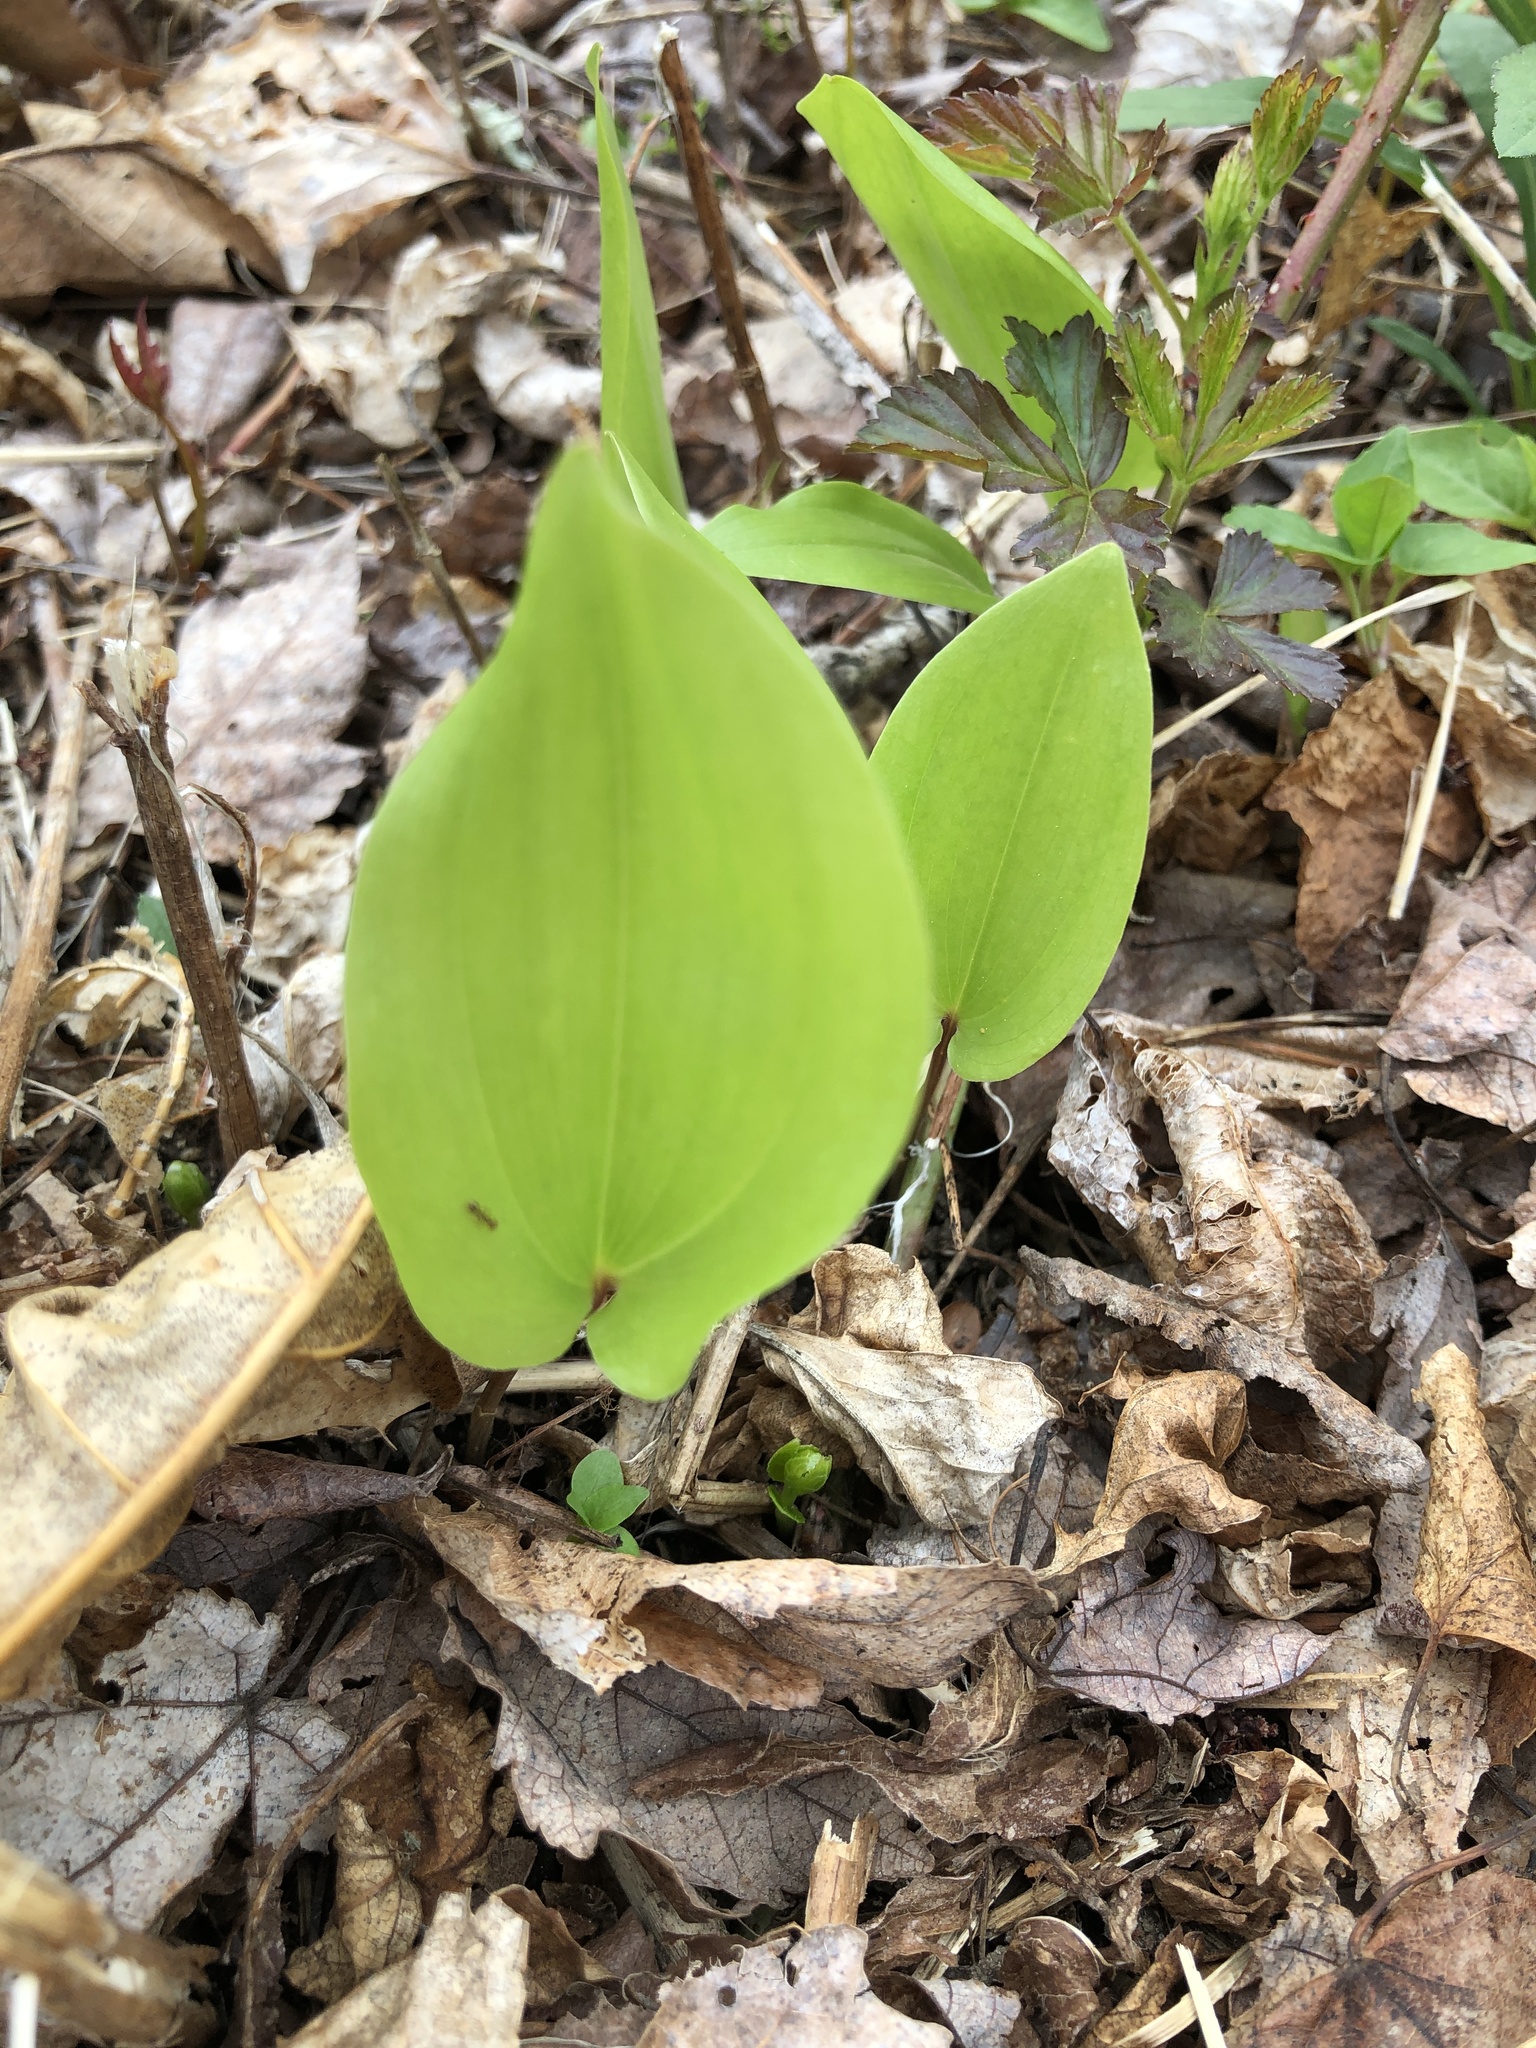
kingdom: Plantae
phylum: Tracheophyta
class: Liliopsida
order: Asparagales
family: Asparagaceae
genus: Maianthemum
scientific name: Maianthemum canadense
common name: False lily-of-the-valley
